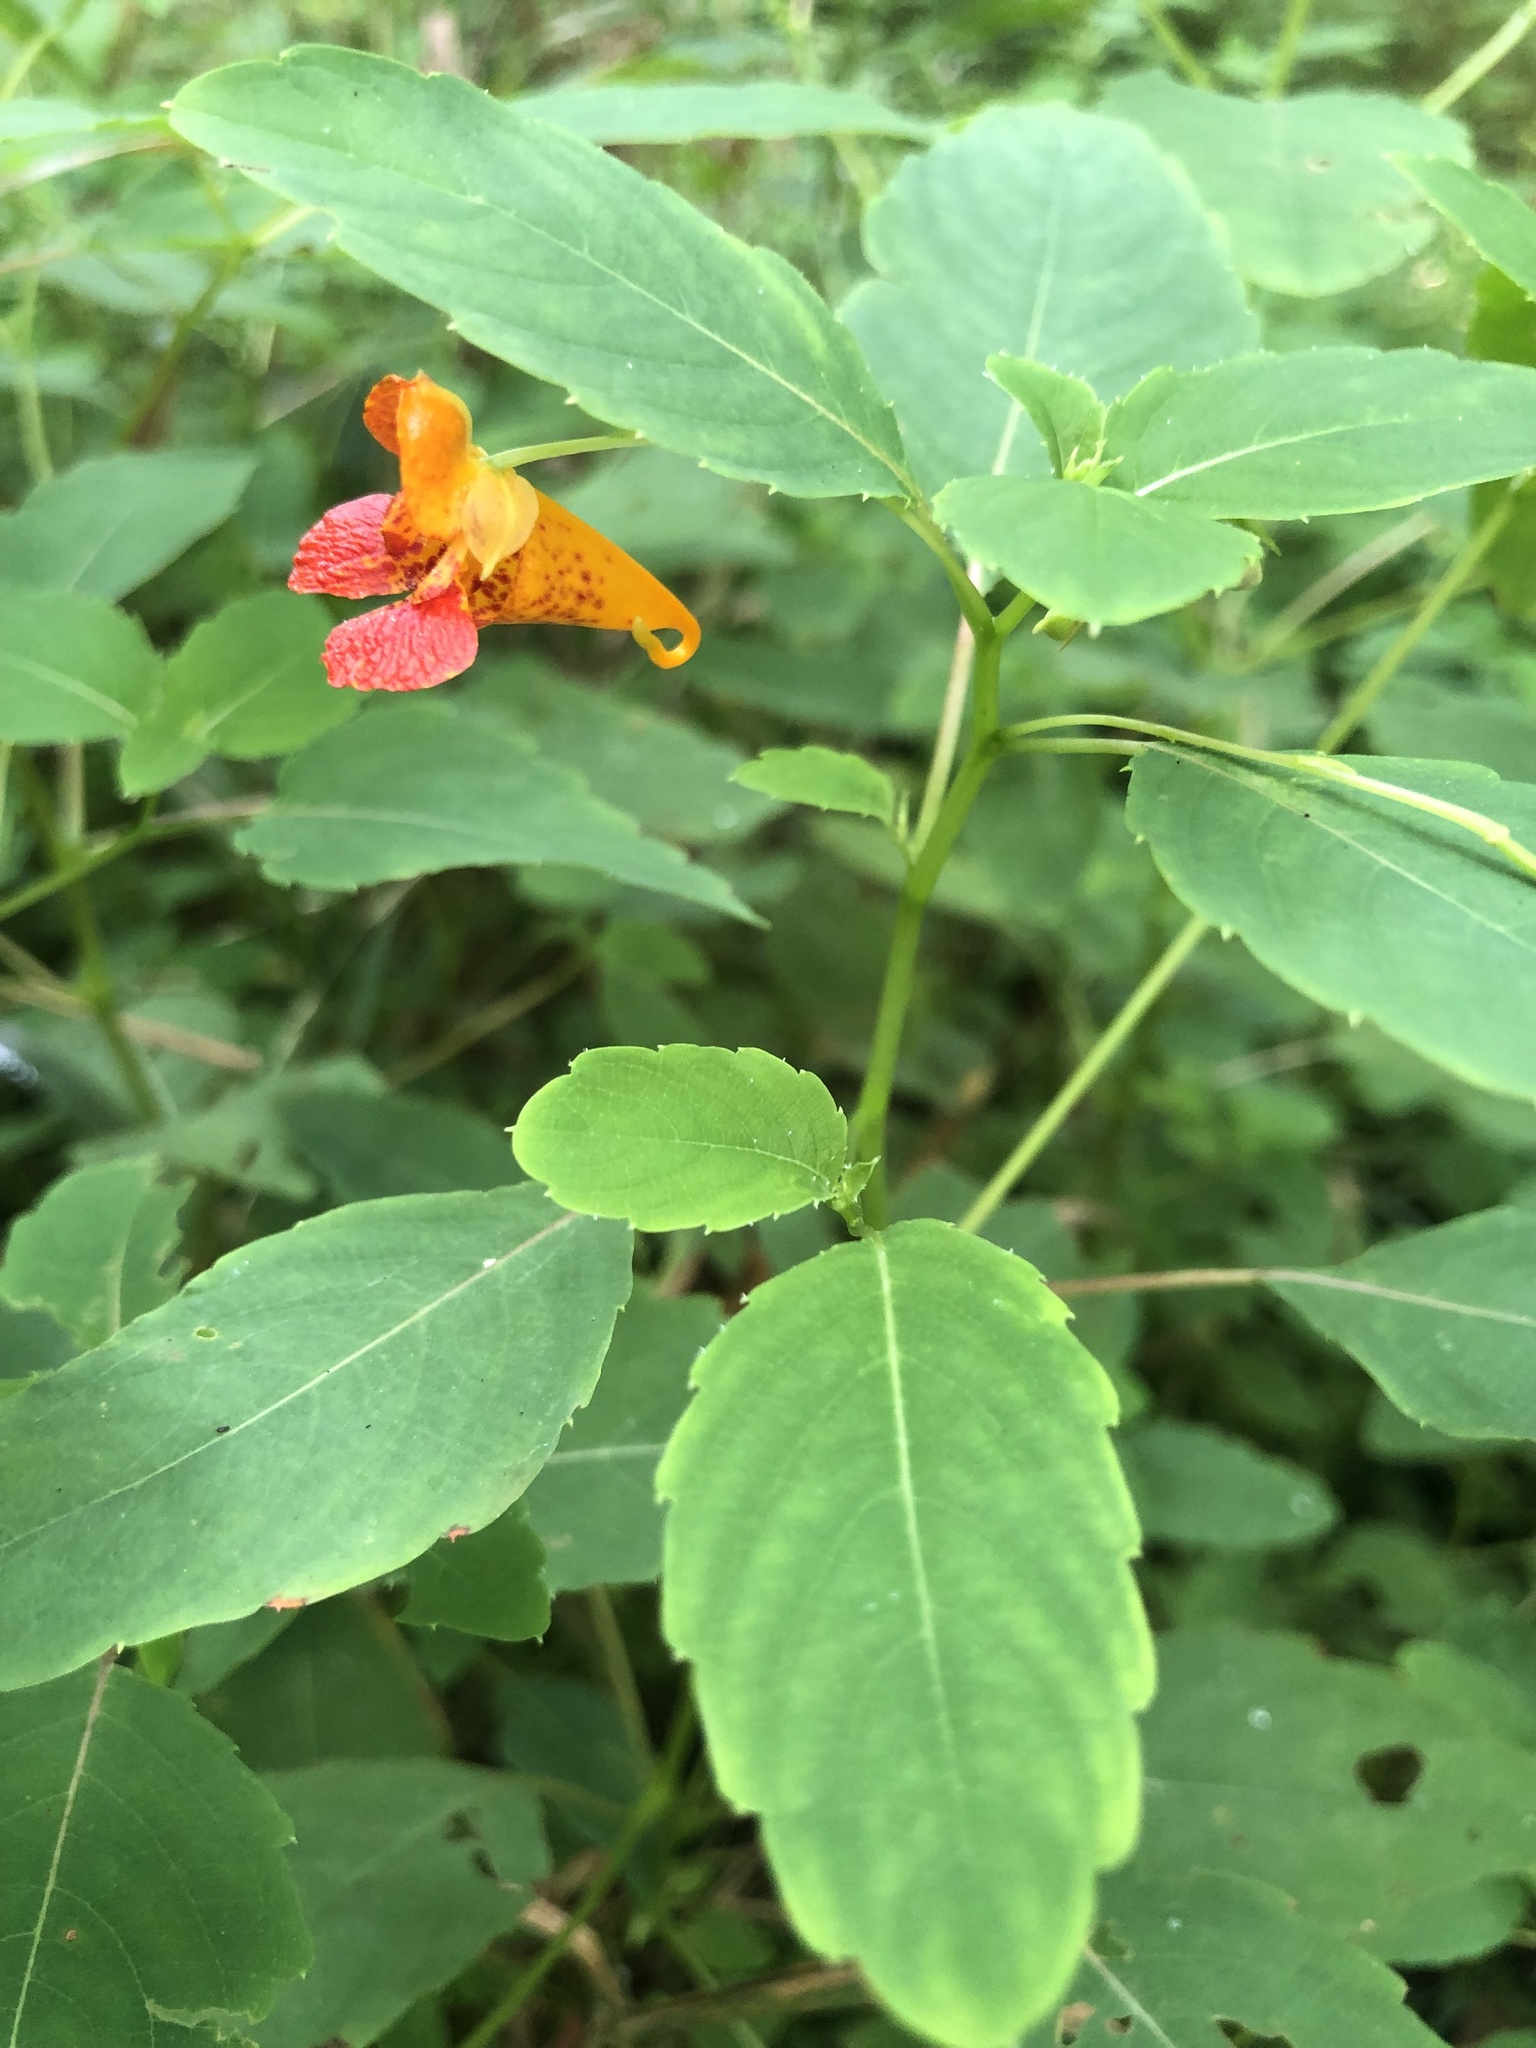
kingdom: Plantae
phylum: Tracheophyta
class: Magnoliopsida
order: Ericales
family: Balsaminaceae
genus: Impatiens
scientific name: Impatiens capensis
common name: Orange balsam
